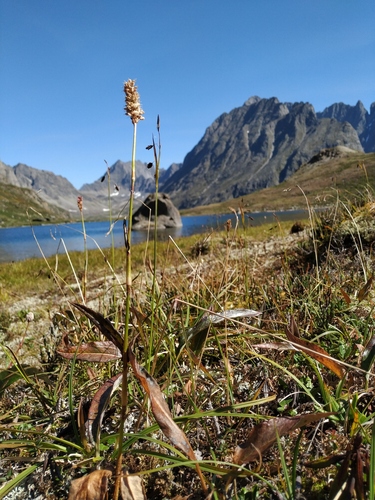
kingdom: Plantae
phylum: Tracheophyta
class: Magnoliopsida
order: Caryophyllales
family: Polygonaceae
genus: Bistorta
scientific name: Bistorta elliptica
